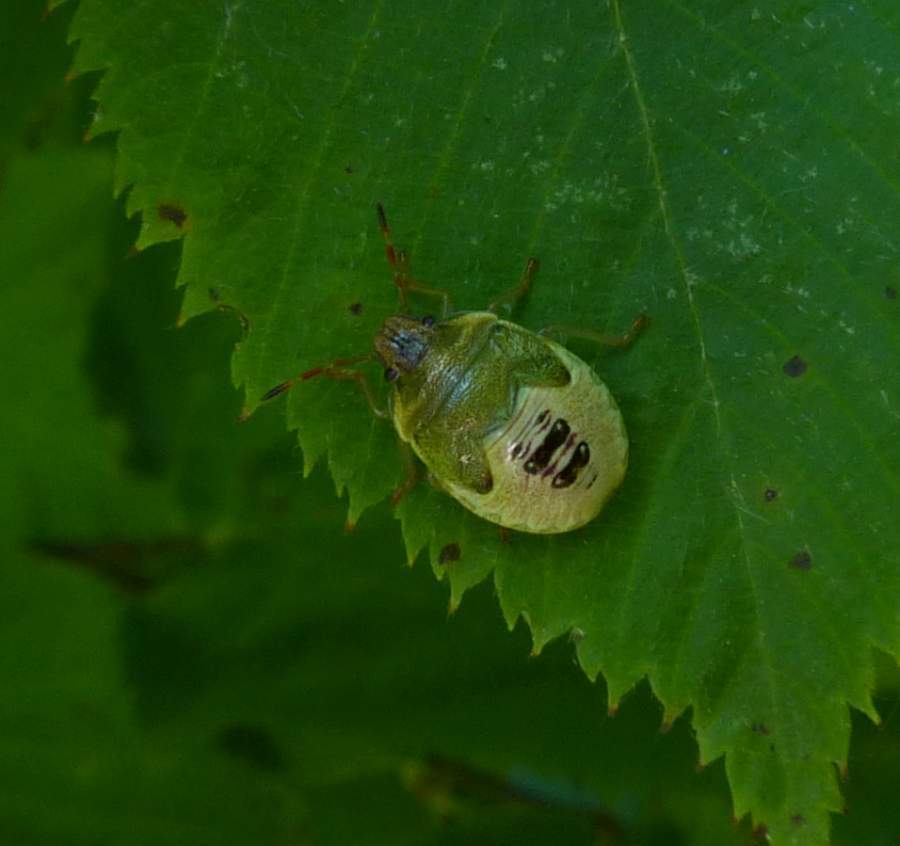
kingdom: Animalia
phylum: Arthropoda
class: Insecta
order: Hemiptera
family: Pentatomidae
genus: Chinavia
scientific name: Chinavia hilaris
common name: Green stink bug
